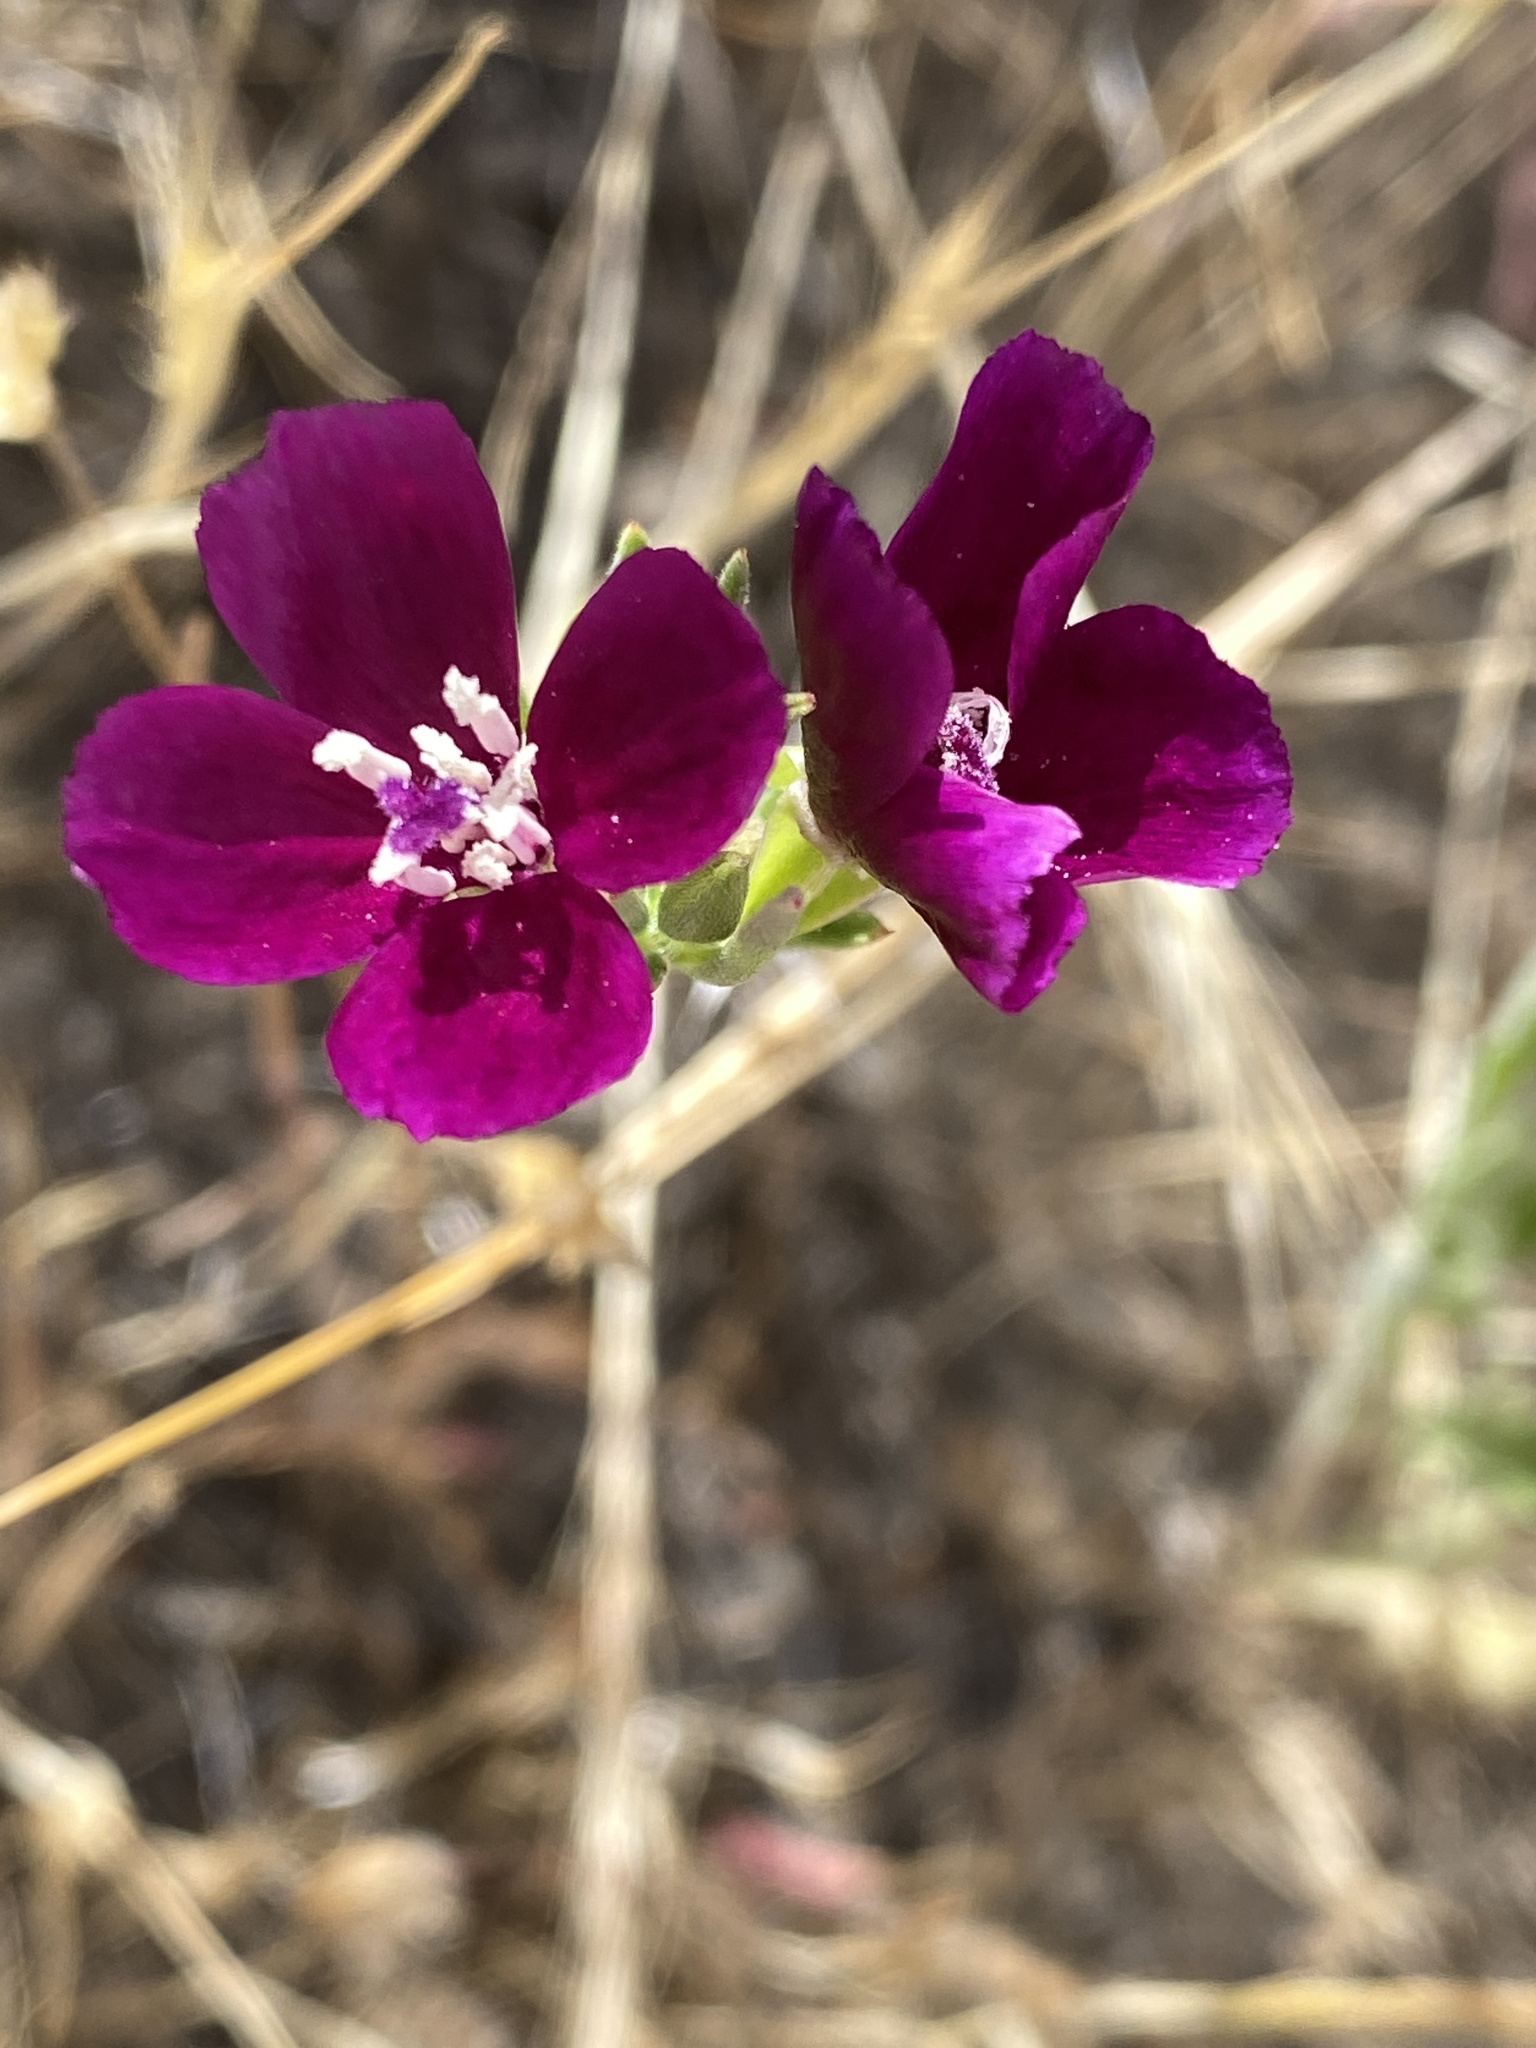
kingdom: Plantae
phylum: Tracheophyta
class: Magnoliopsida
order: Myrtales
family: Onagraceae
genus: Clarkia
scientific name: Clarkia purpurea
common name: Purple clarkia
